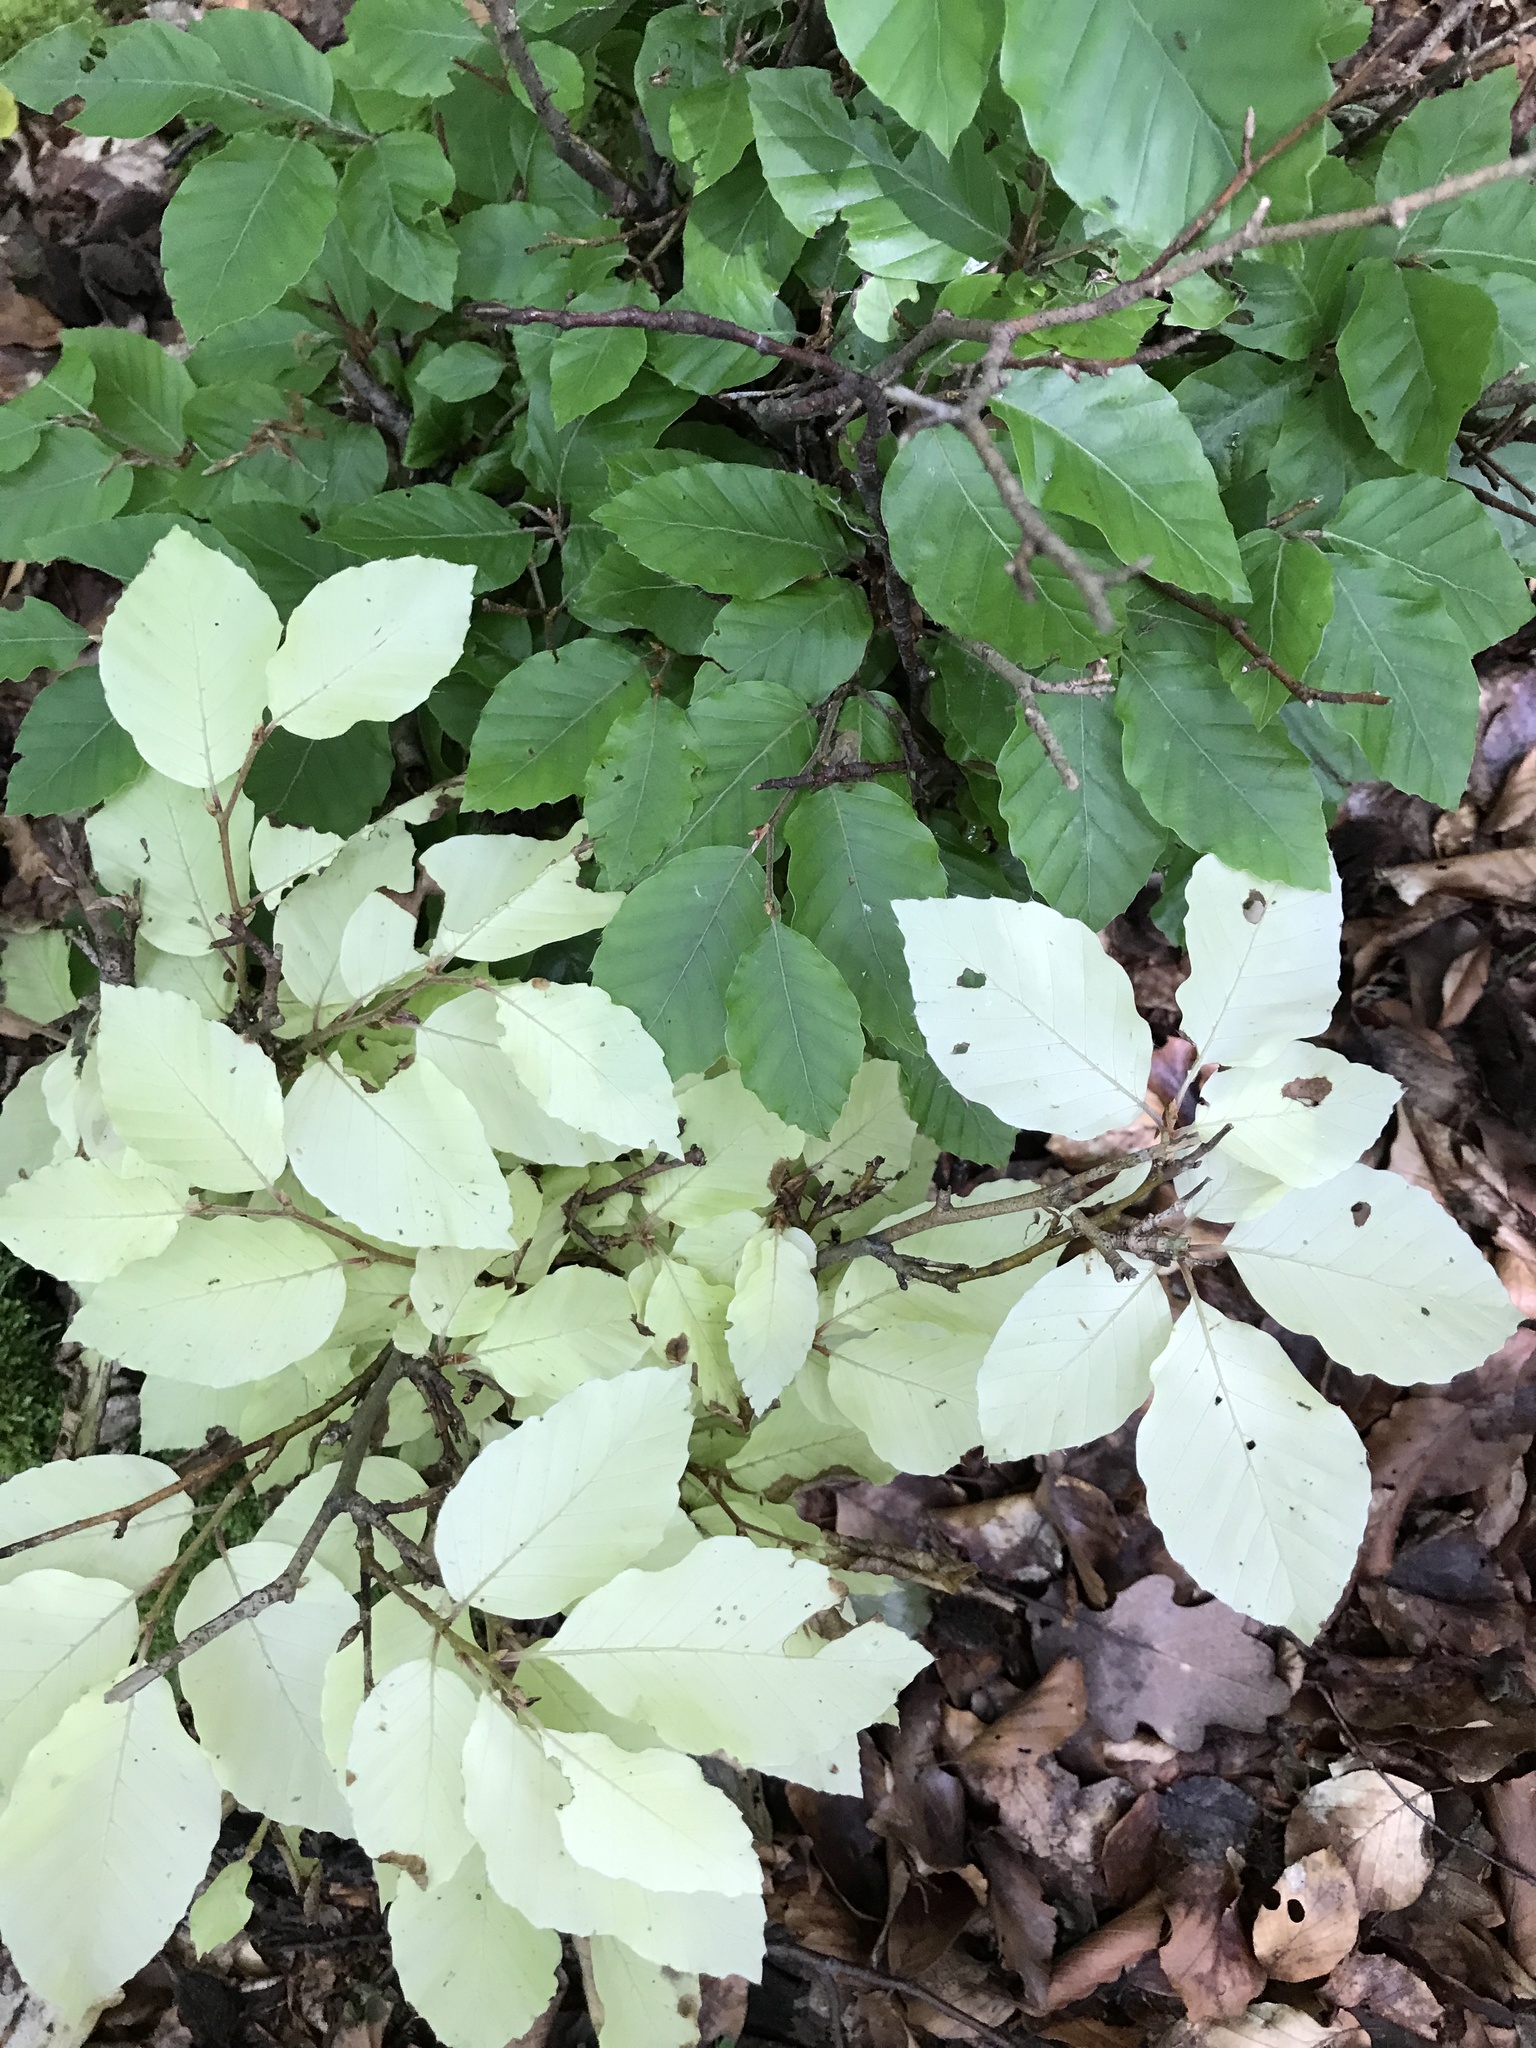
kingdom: Plantae
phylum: Tracheophyta
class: Magnoliopsida
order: Fagales
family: Fagaceae
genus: Fagus
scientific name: Fagus sylvatica
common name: Beech
